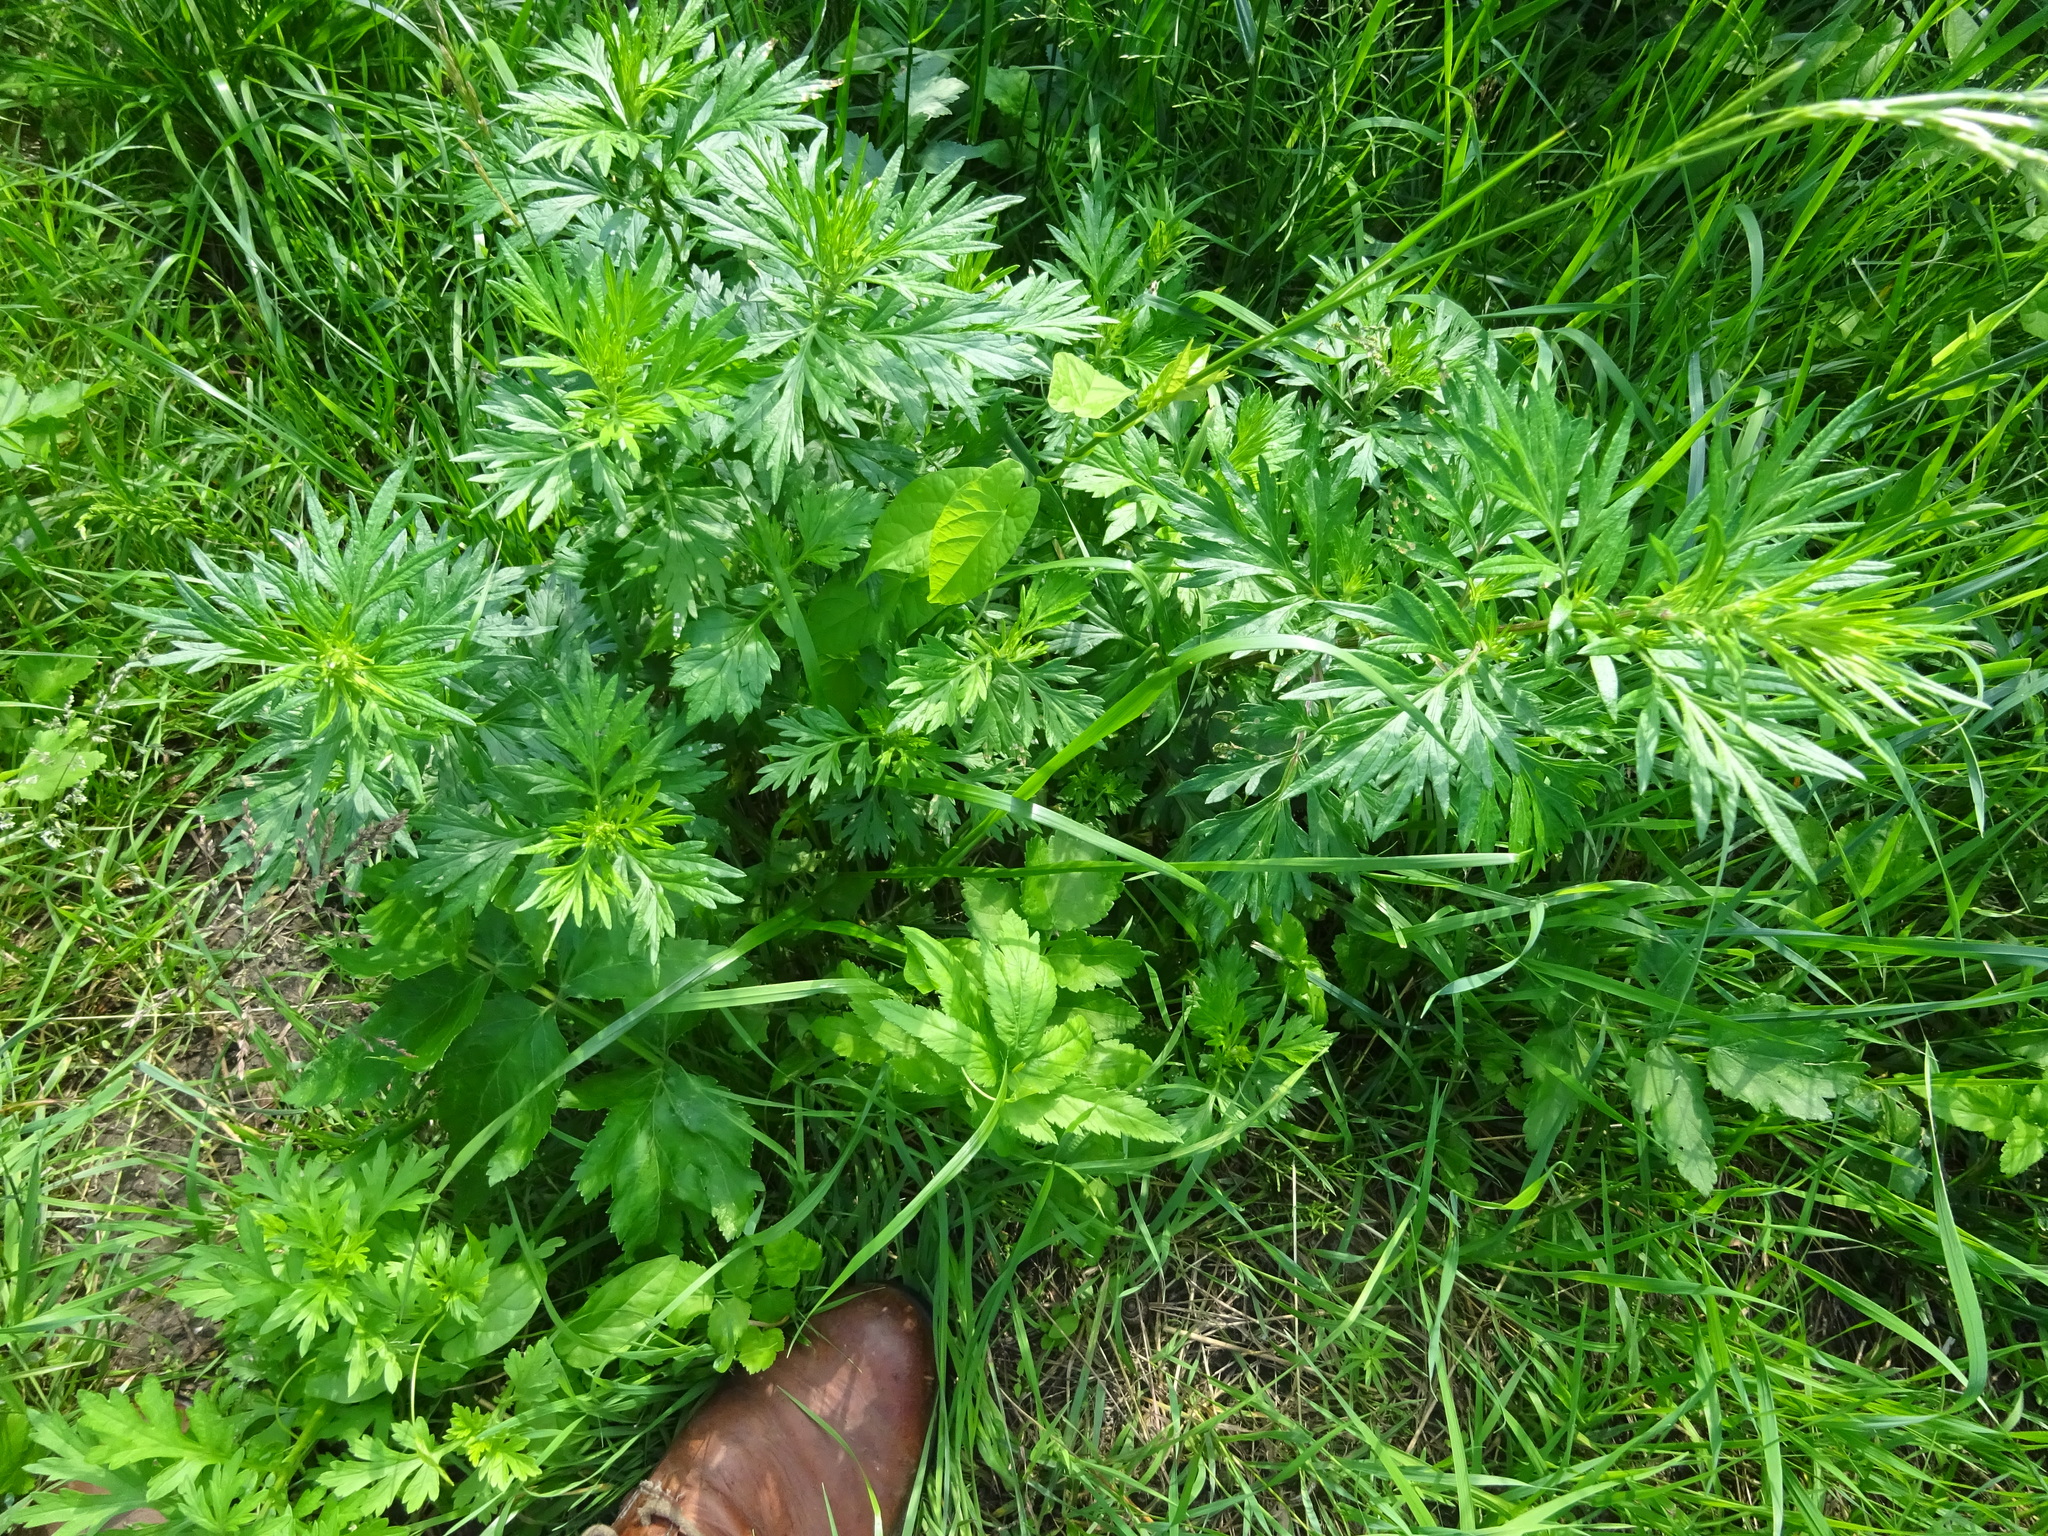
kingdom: Plantae
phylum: Tracheophyta
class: Magnoliopsida
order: Asterales
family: Asteraceae
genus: Artemisia
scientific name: Artemisia vulgaris
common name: Mugwort
